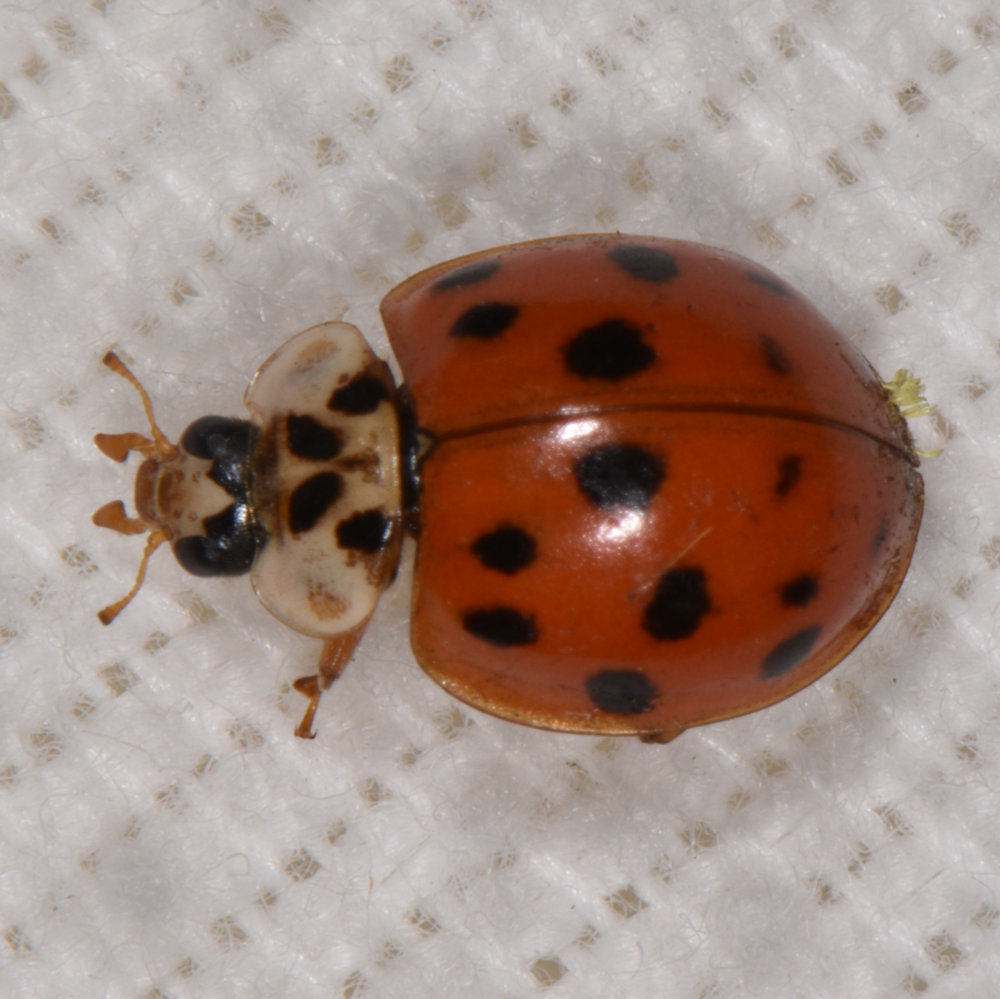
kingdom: Animalia
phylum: Arthropoda
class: Insecta
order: Coleoptera
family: Coccinellidae
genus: Harmonia
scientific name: Harmonia axyridis
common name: Harlequin ladybird
